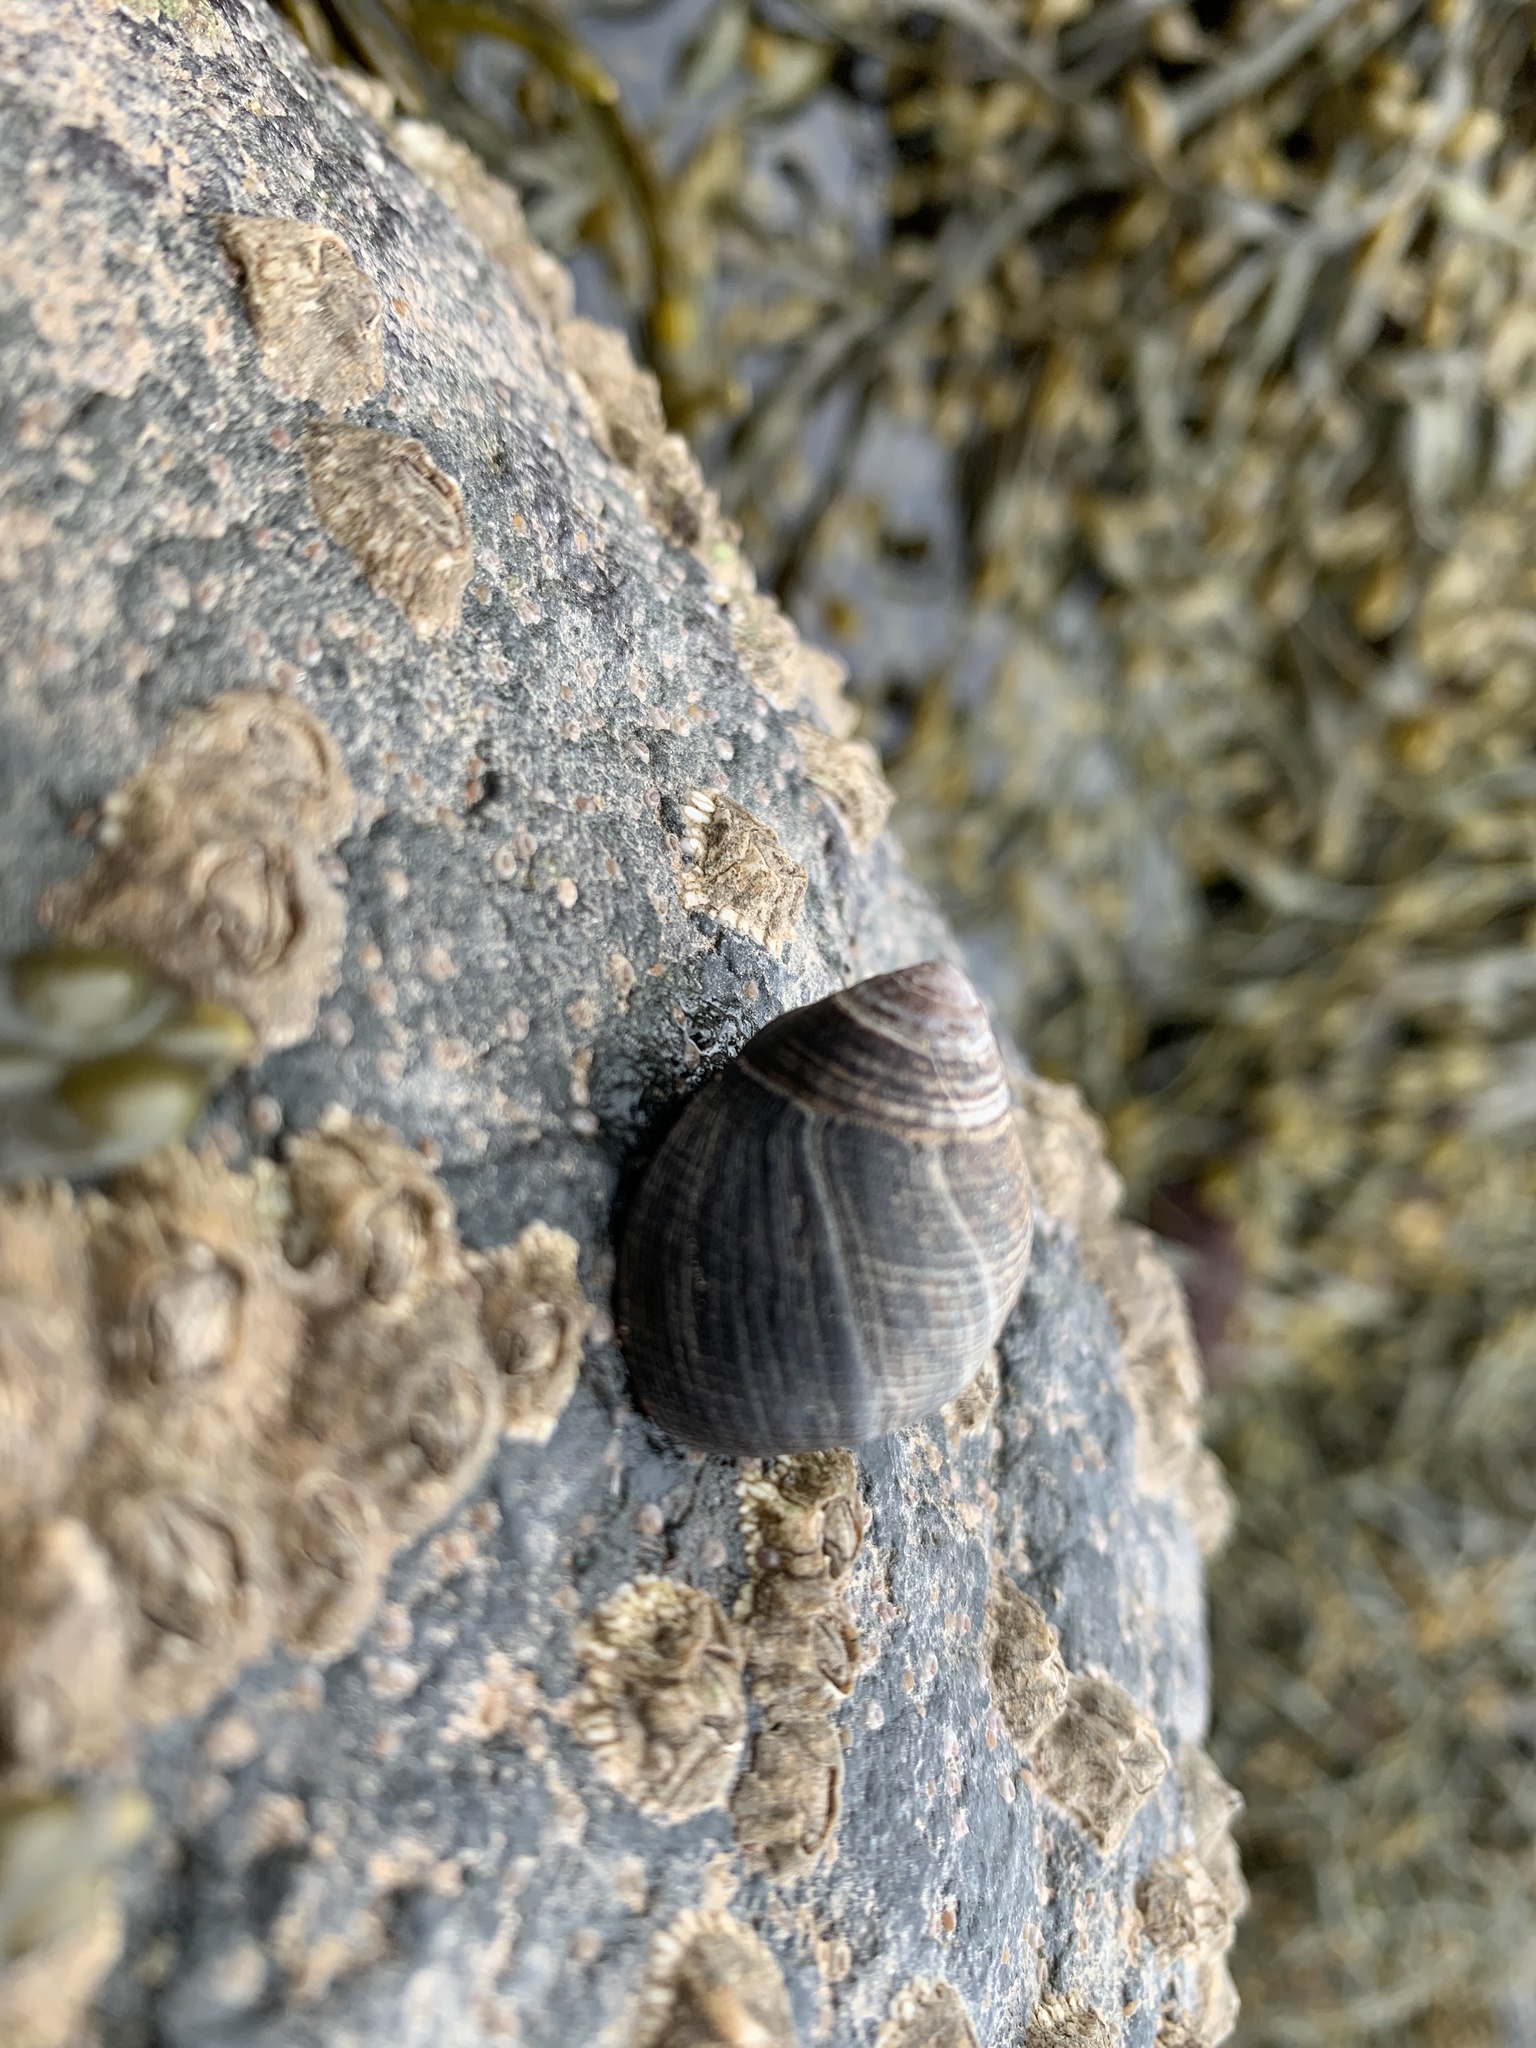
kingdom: Animalia
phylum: Mollusca
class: Gastropoda
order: Littorinimorpha
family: Littorinidae
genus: Littorina
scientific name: Littorina littorea
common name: Common periwinkle
